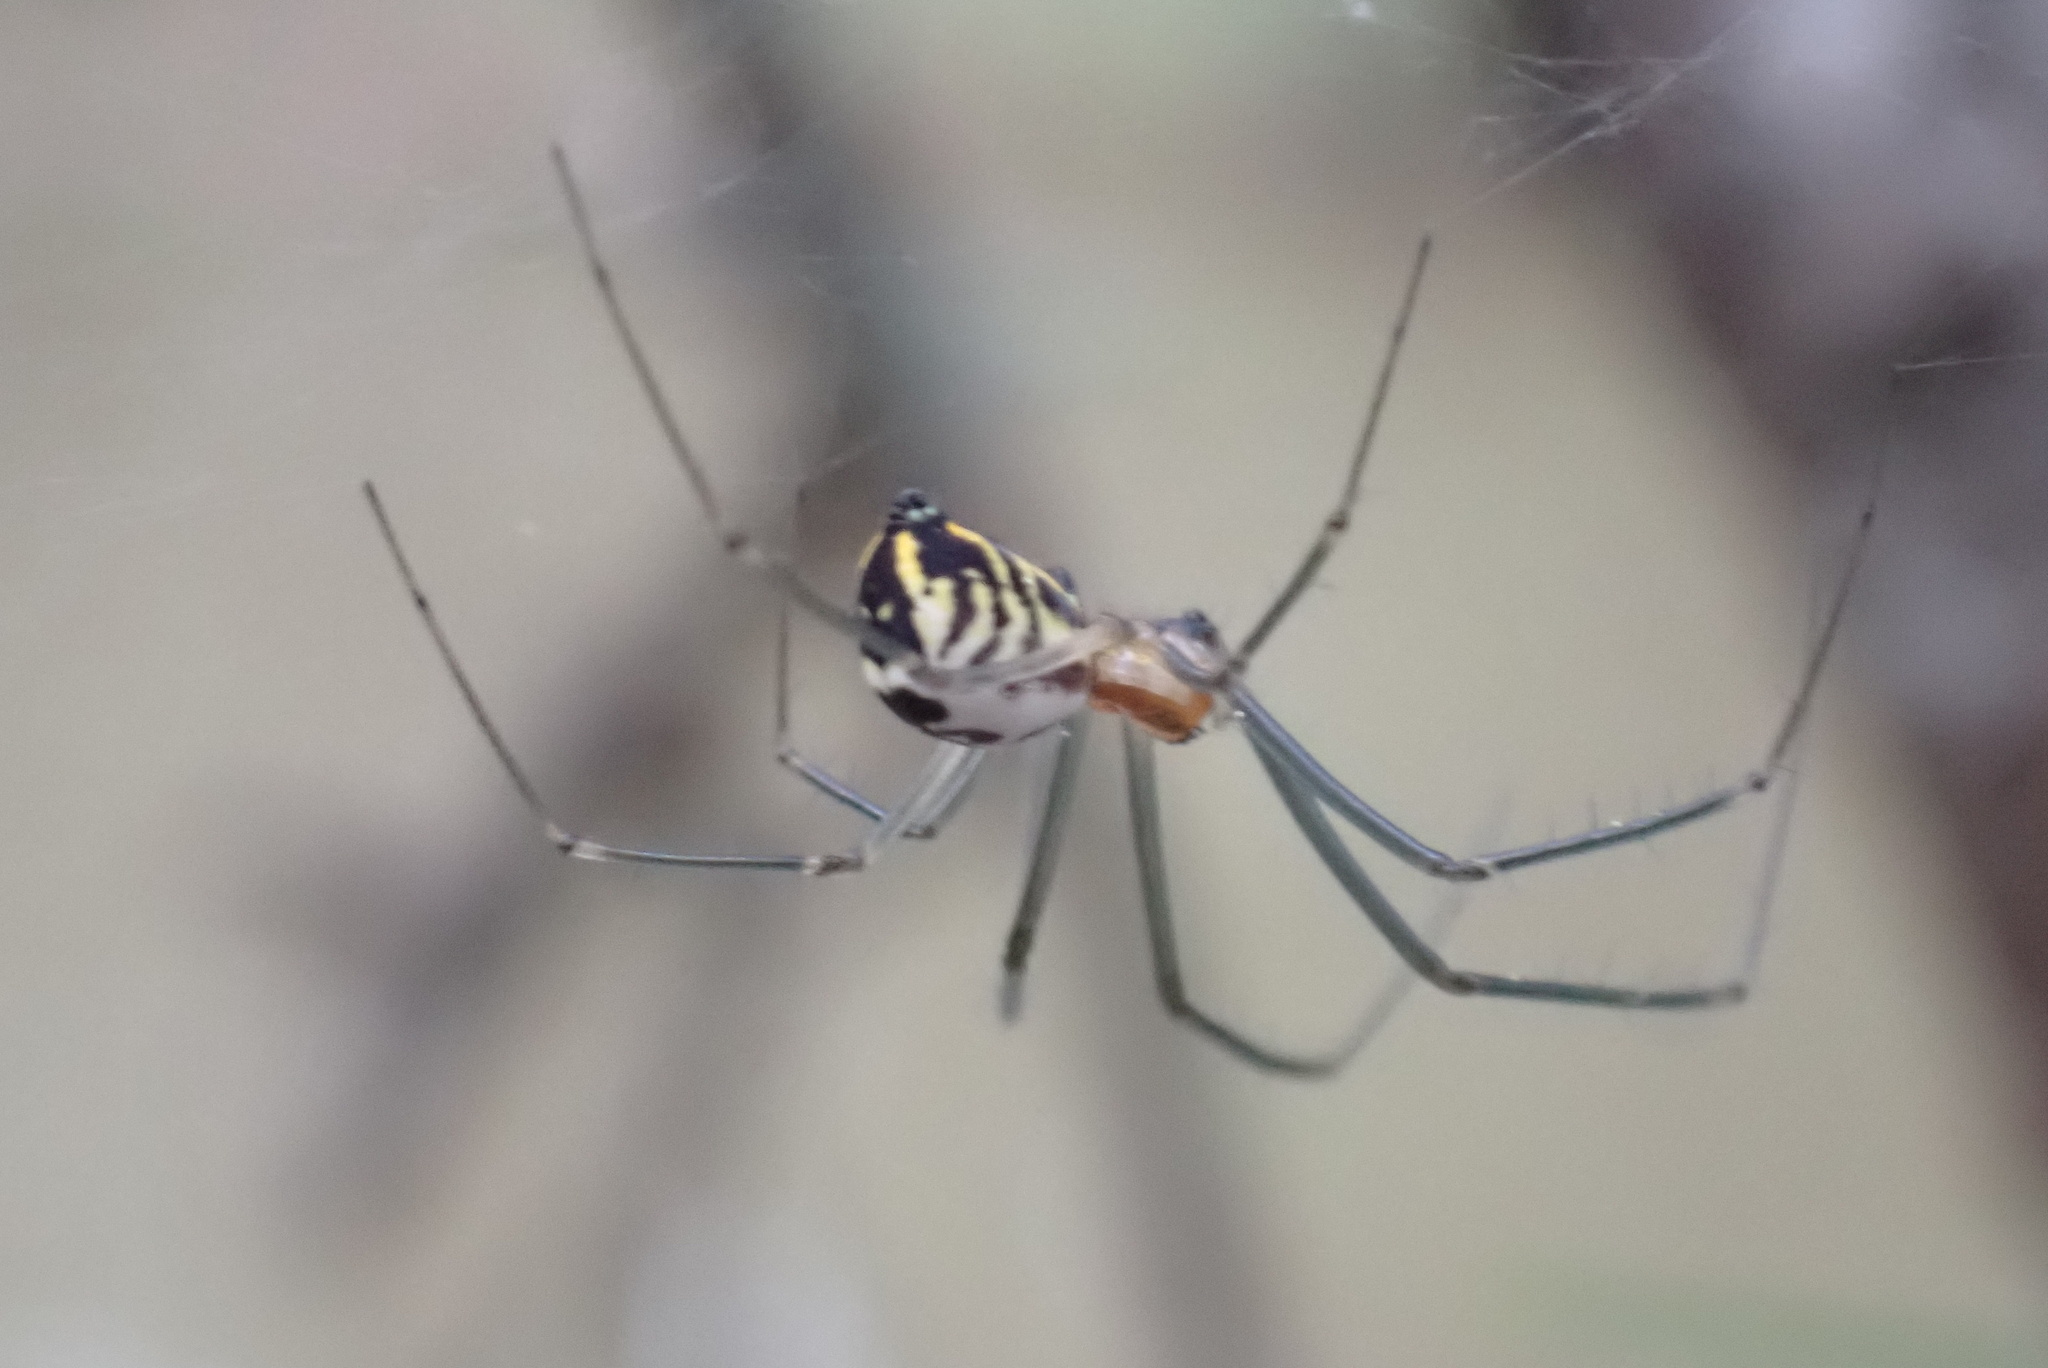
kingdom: Animalia
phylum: Arthropoda
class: Arachnida
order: Araneae
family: Linyphiidae
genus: Neriene
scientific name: Neriene radiata
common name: Filmy dome spider
